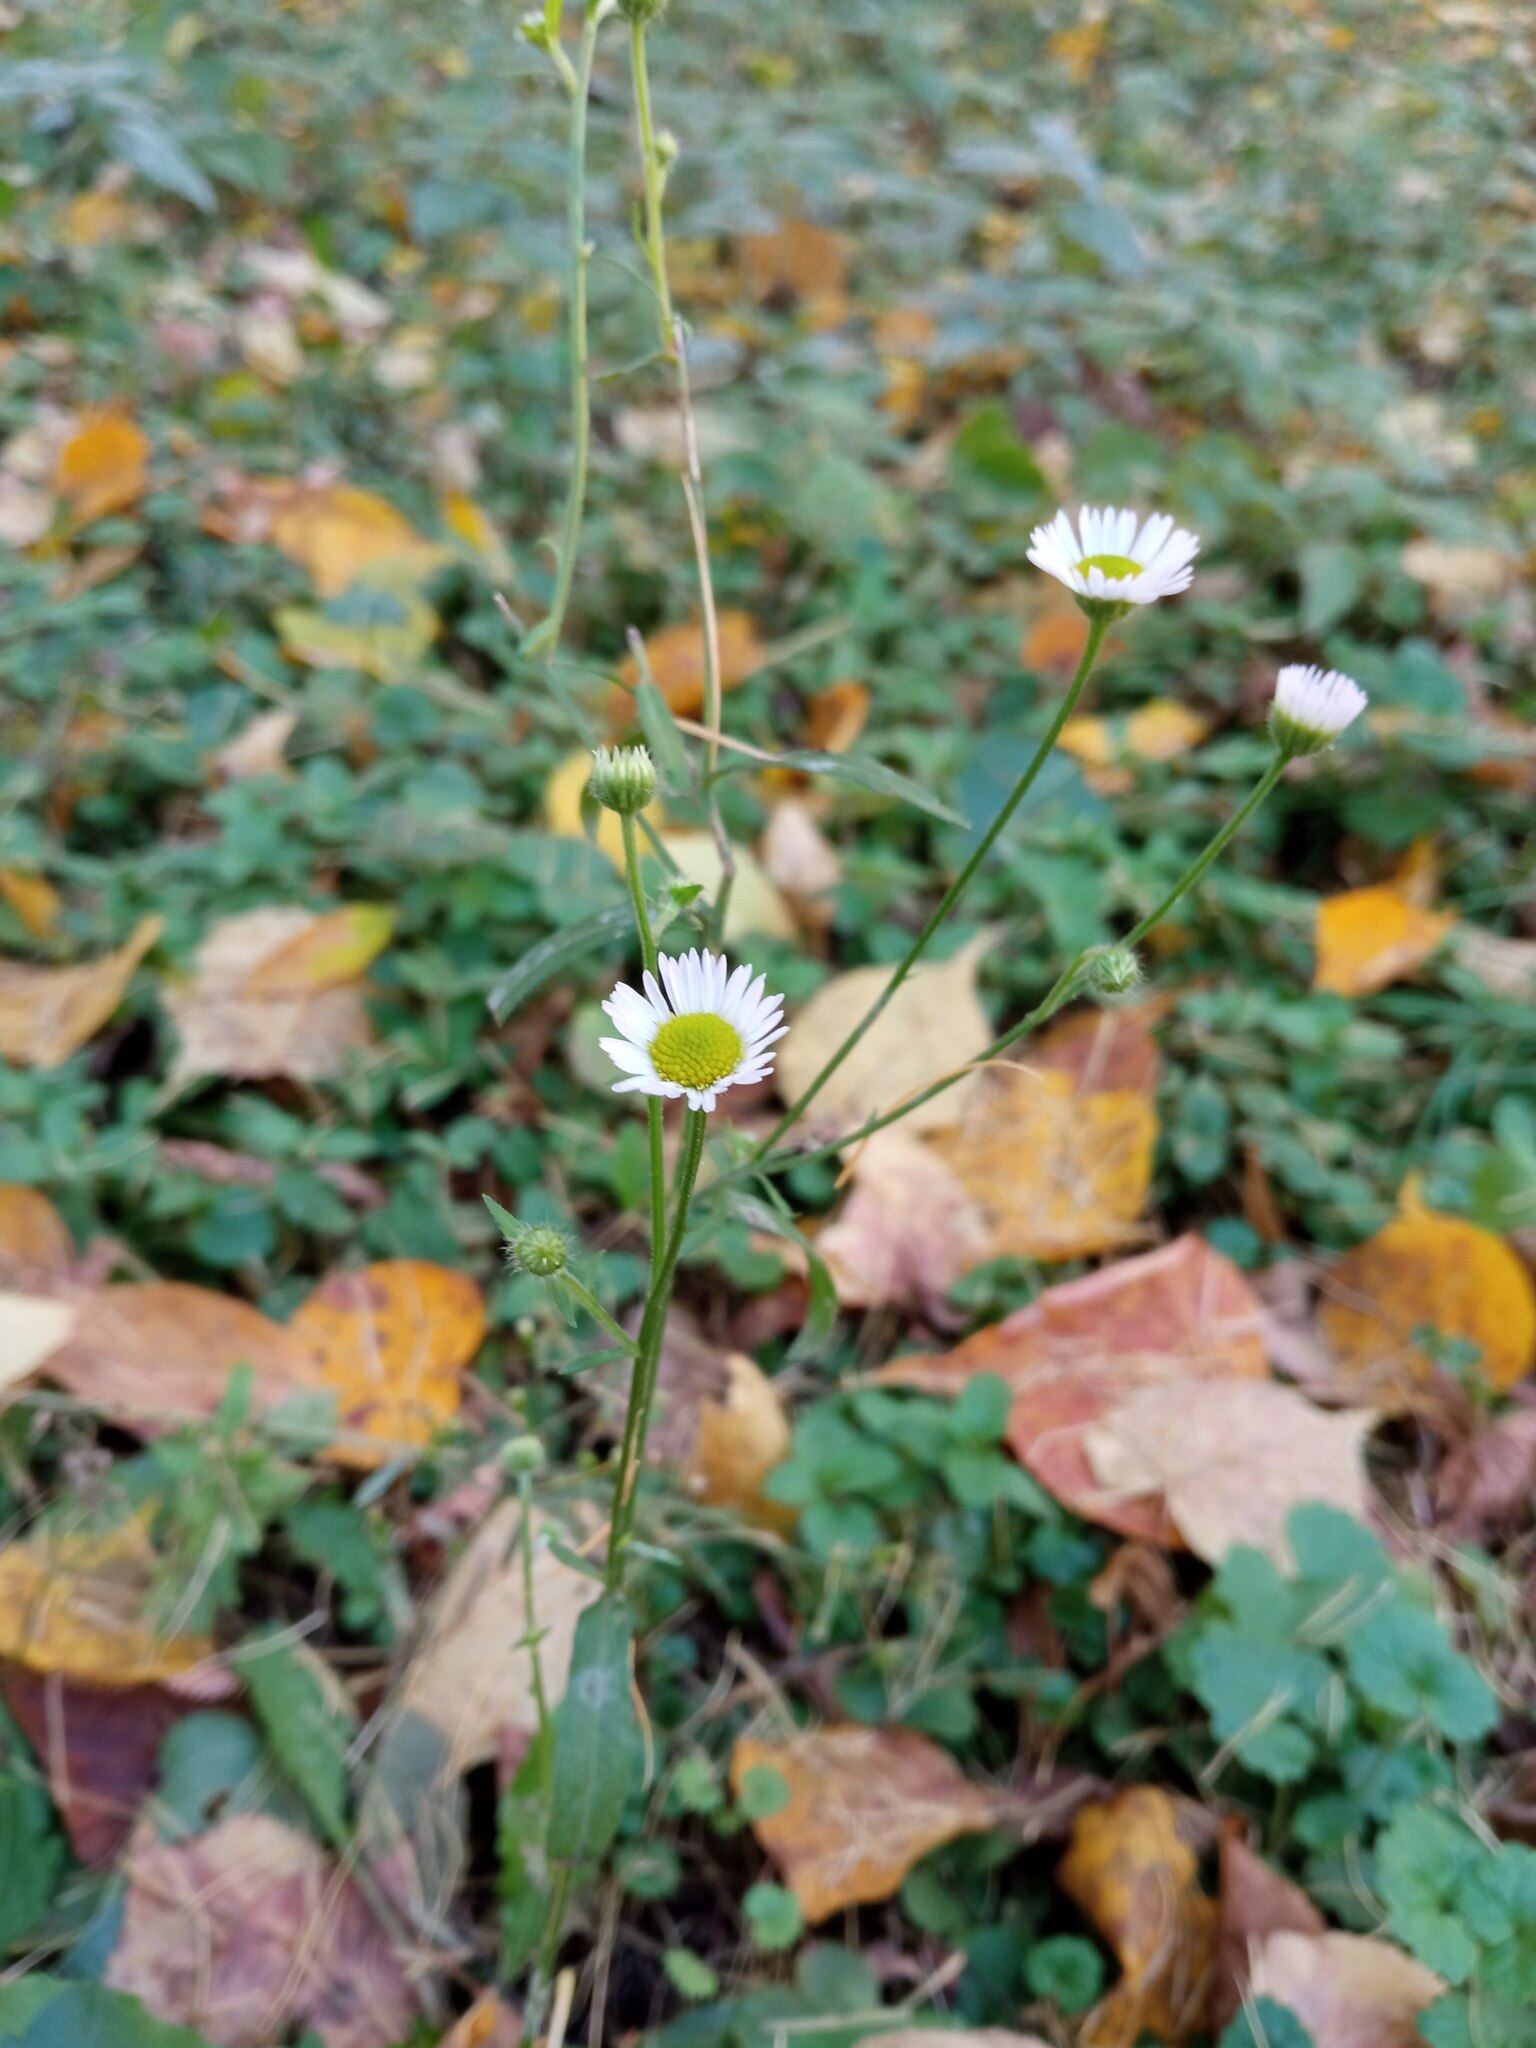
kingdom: Plantae
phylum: Tracheophyta
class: Magnoliopsida
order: Asterales
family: Asteraceae
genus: Erigeron
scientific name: Erigeron annuus
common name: Tall fleabane
